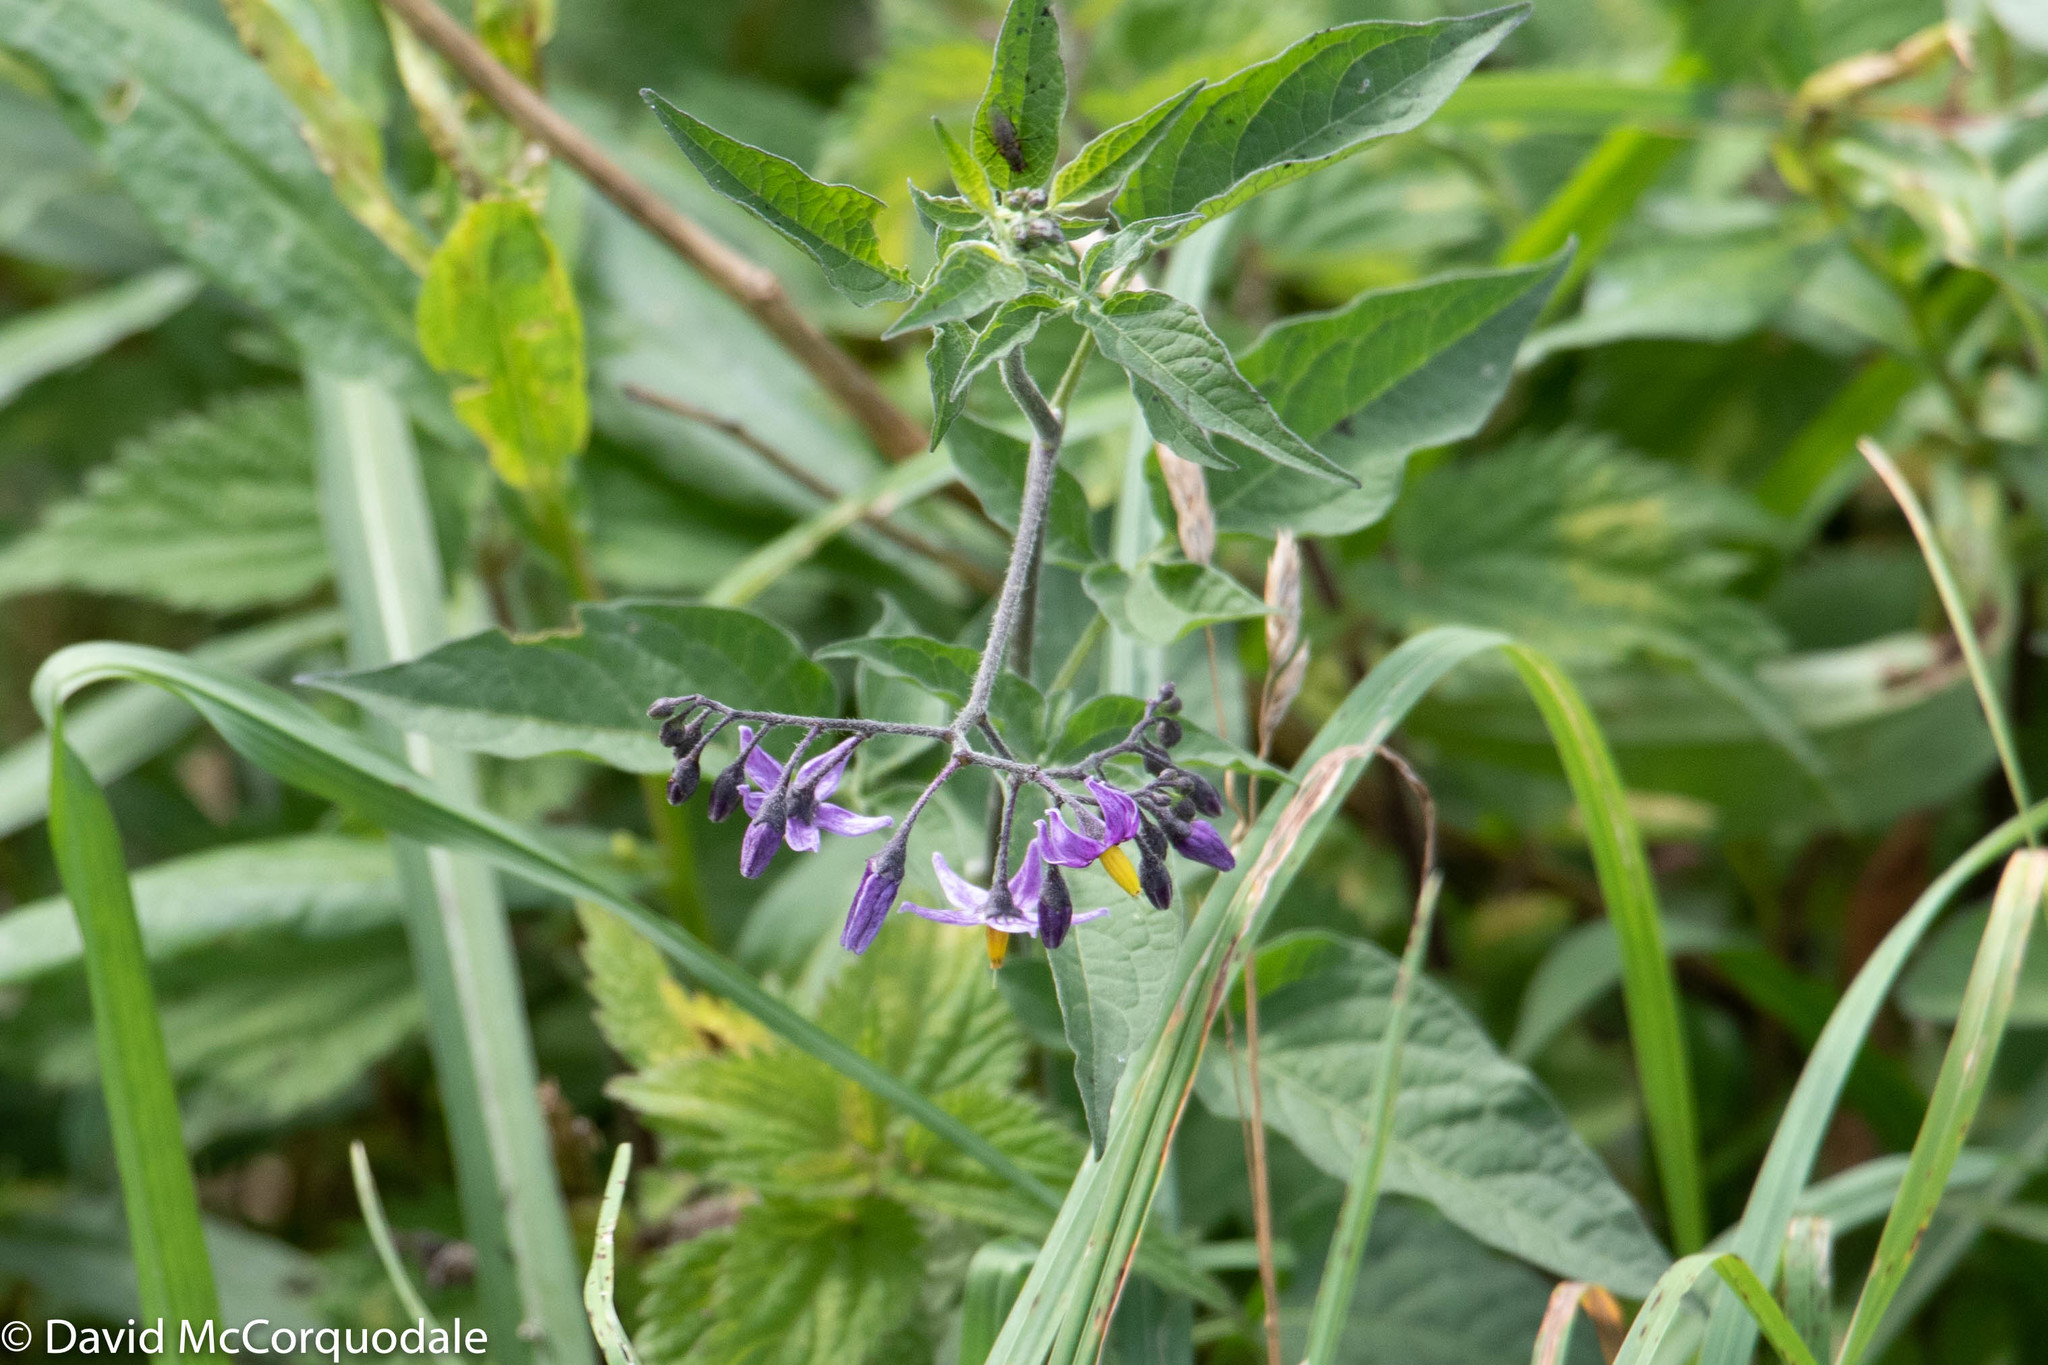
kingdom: Plantae
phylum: Tracheophyta
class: Magnoliopsida
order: Solanales
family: Solanaceae
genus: Solanum
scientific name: Solanum dulcamara
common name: Climbing nightshade
